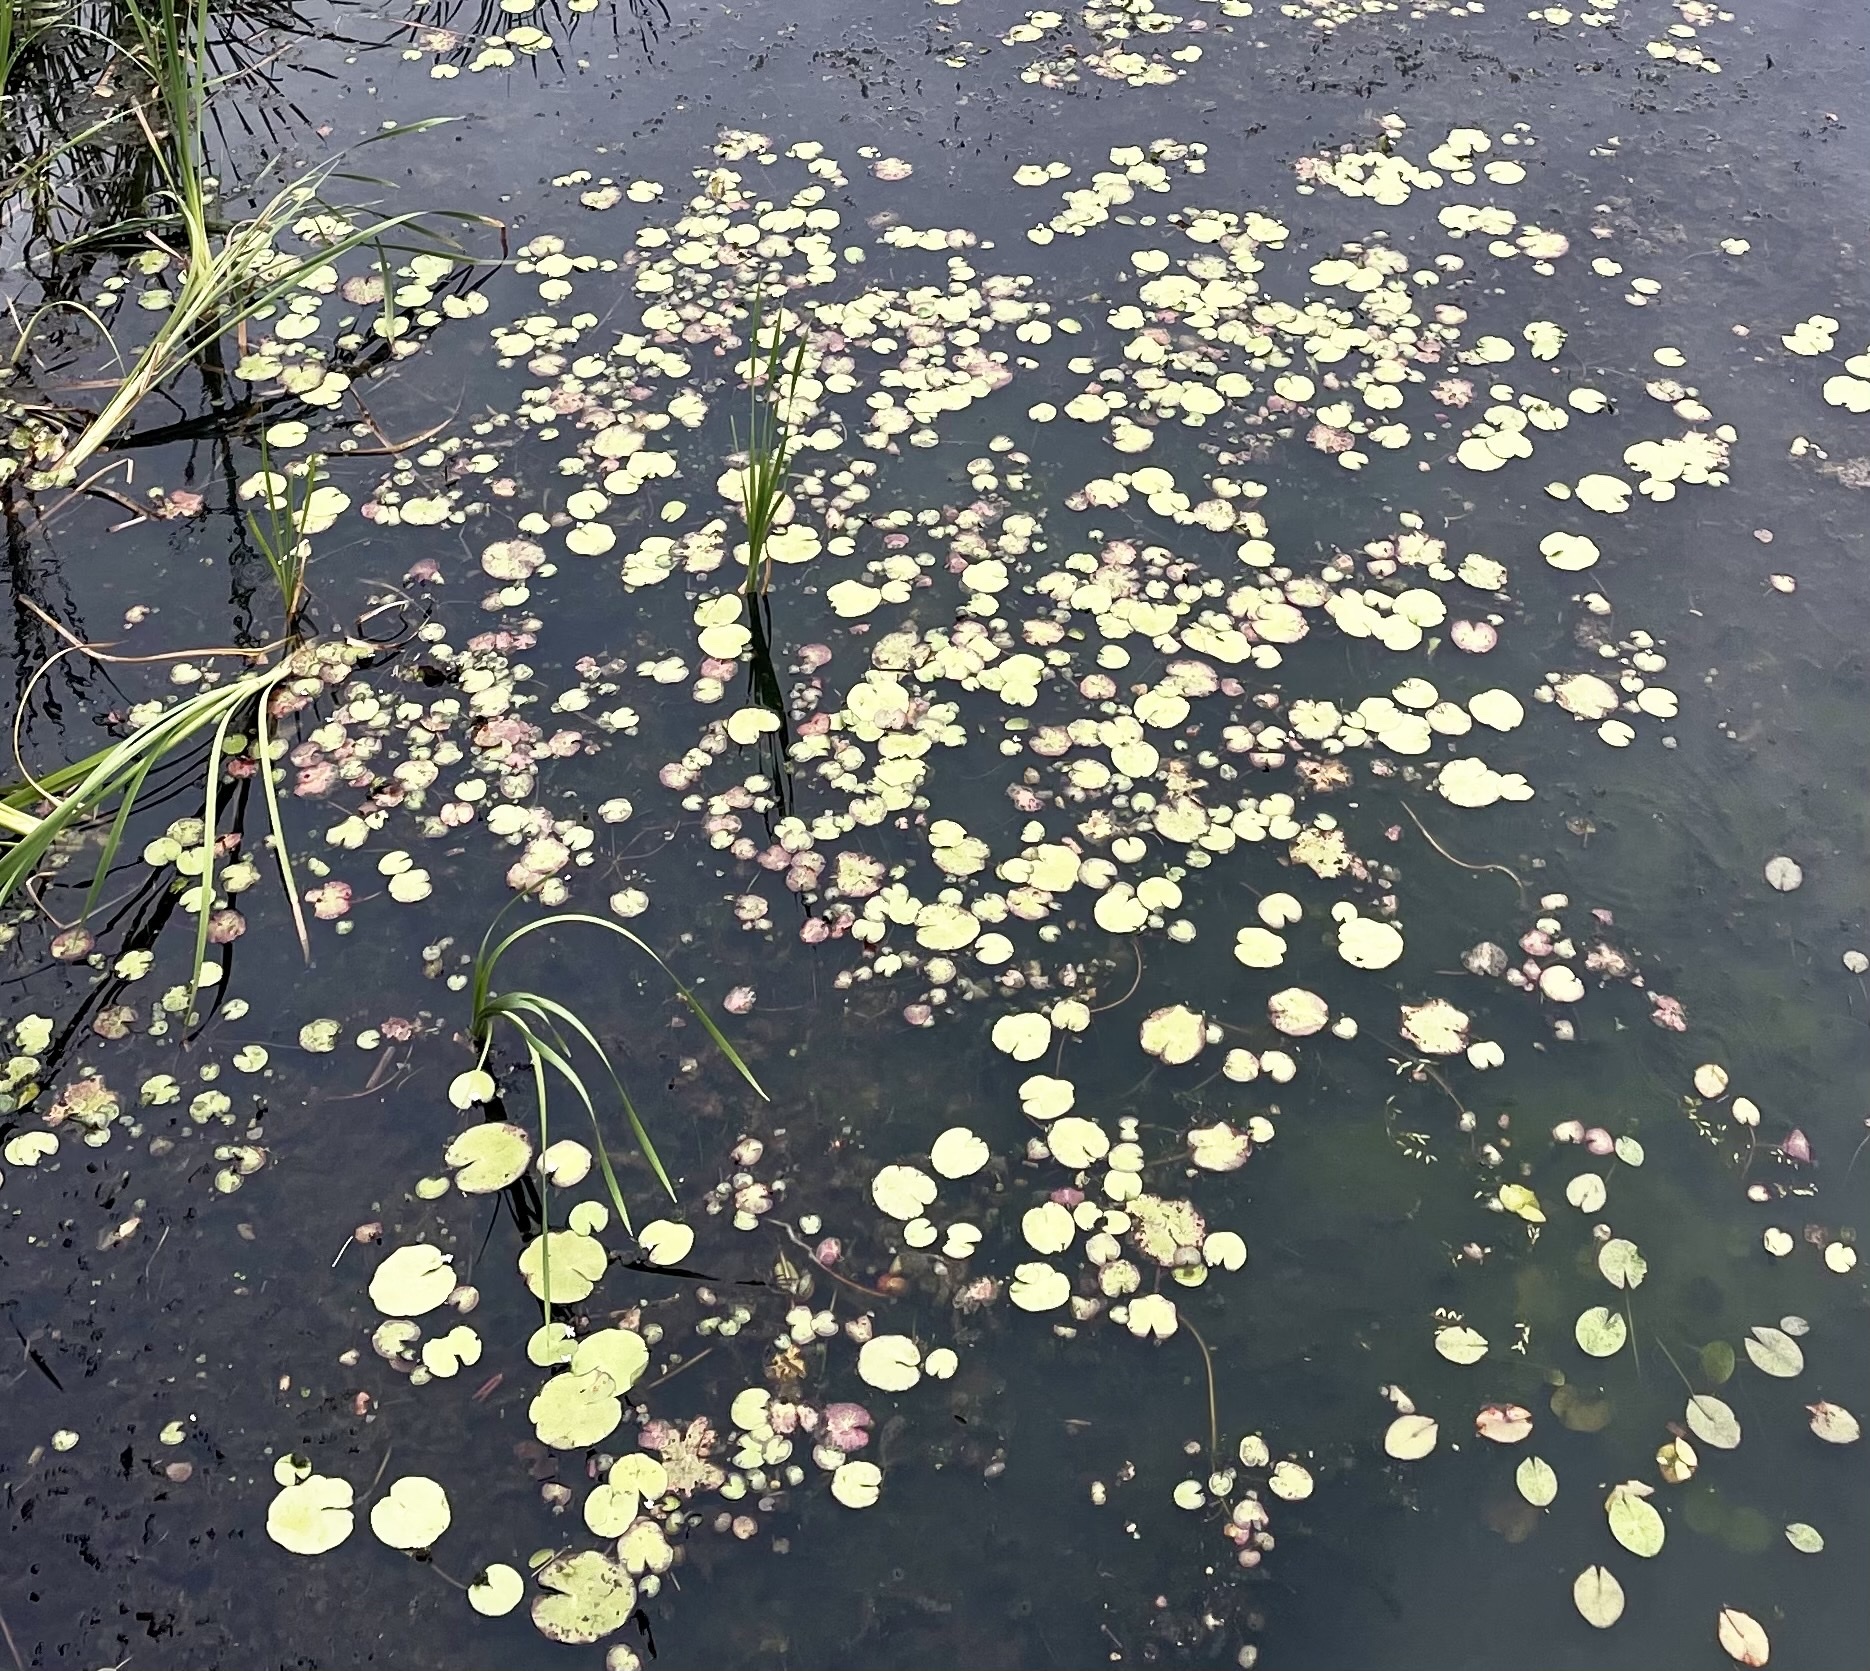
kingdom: Plantae
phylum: Tracheophyta
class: Magnoliopsida
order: Asterales
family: Menyanthaceae
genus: Nymphoides
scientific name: Nymphoides indica
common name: Water-snowflake
